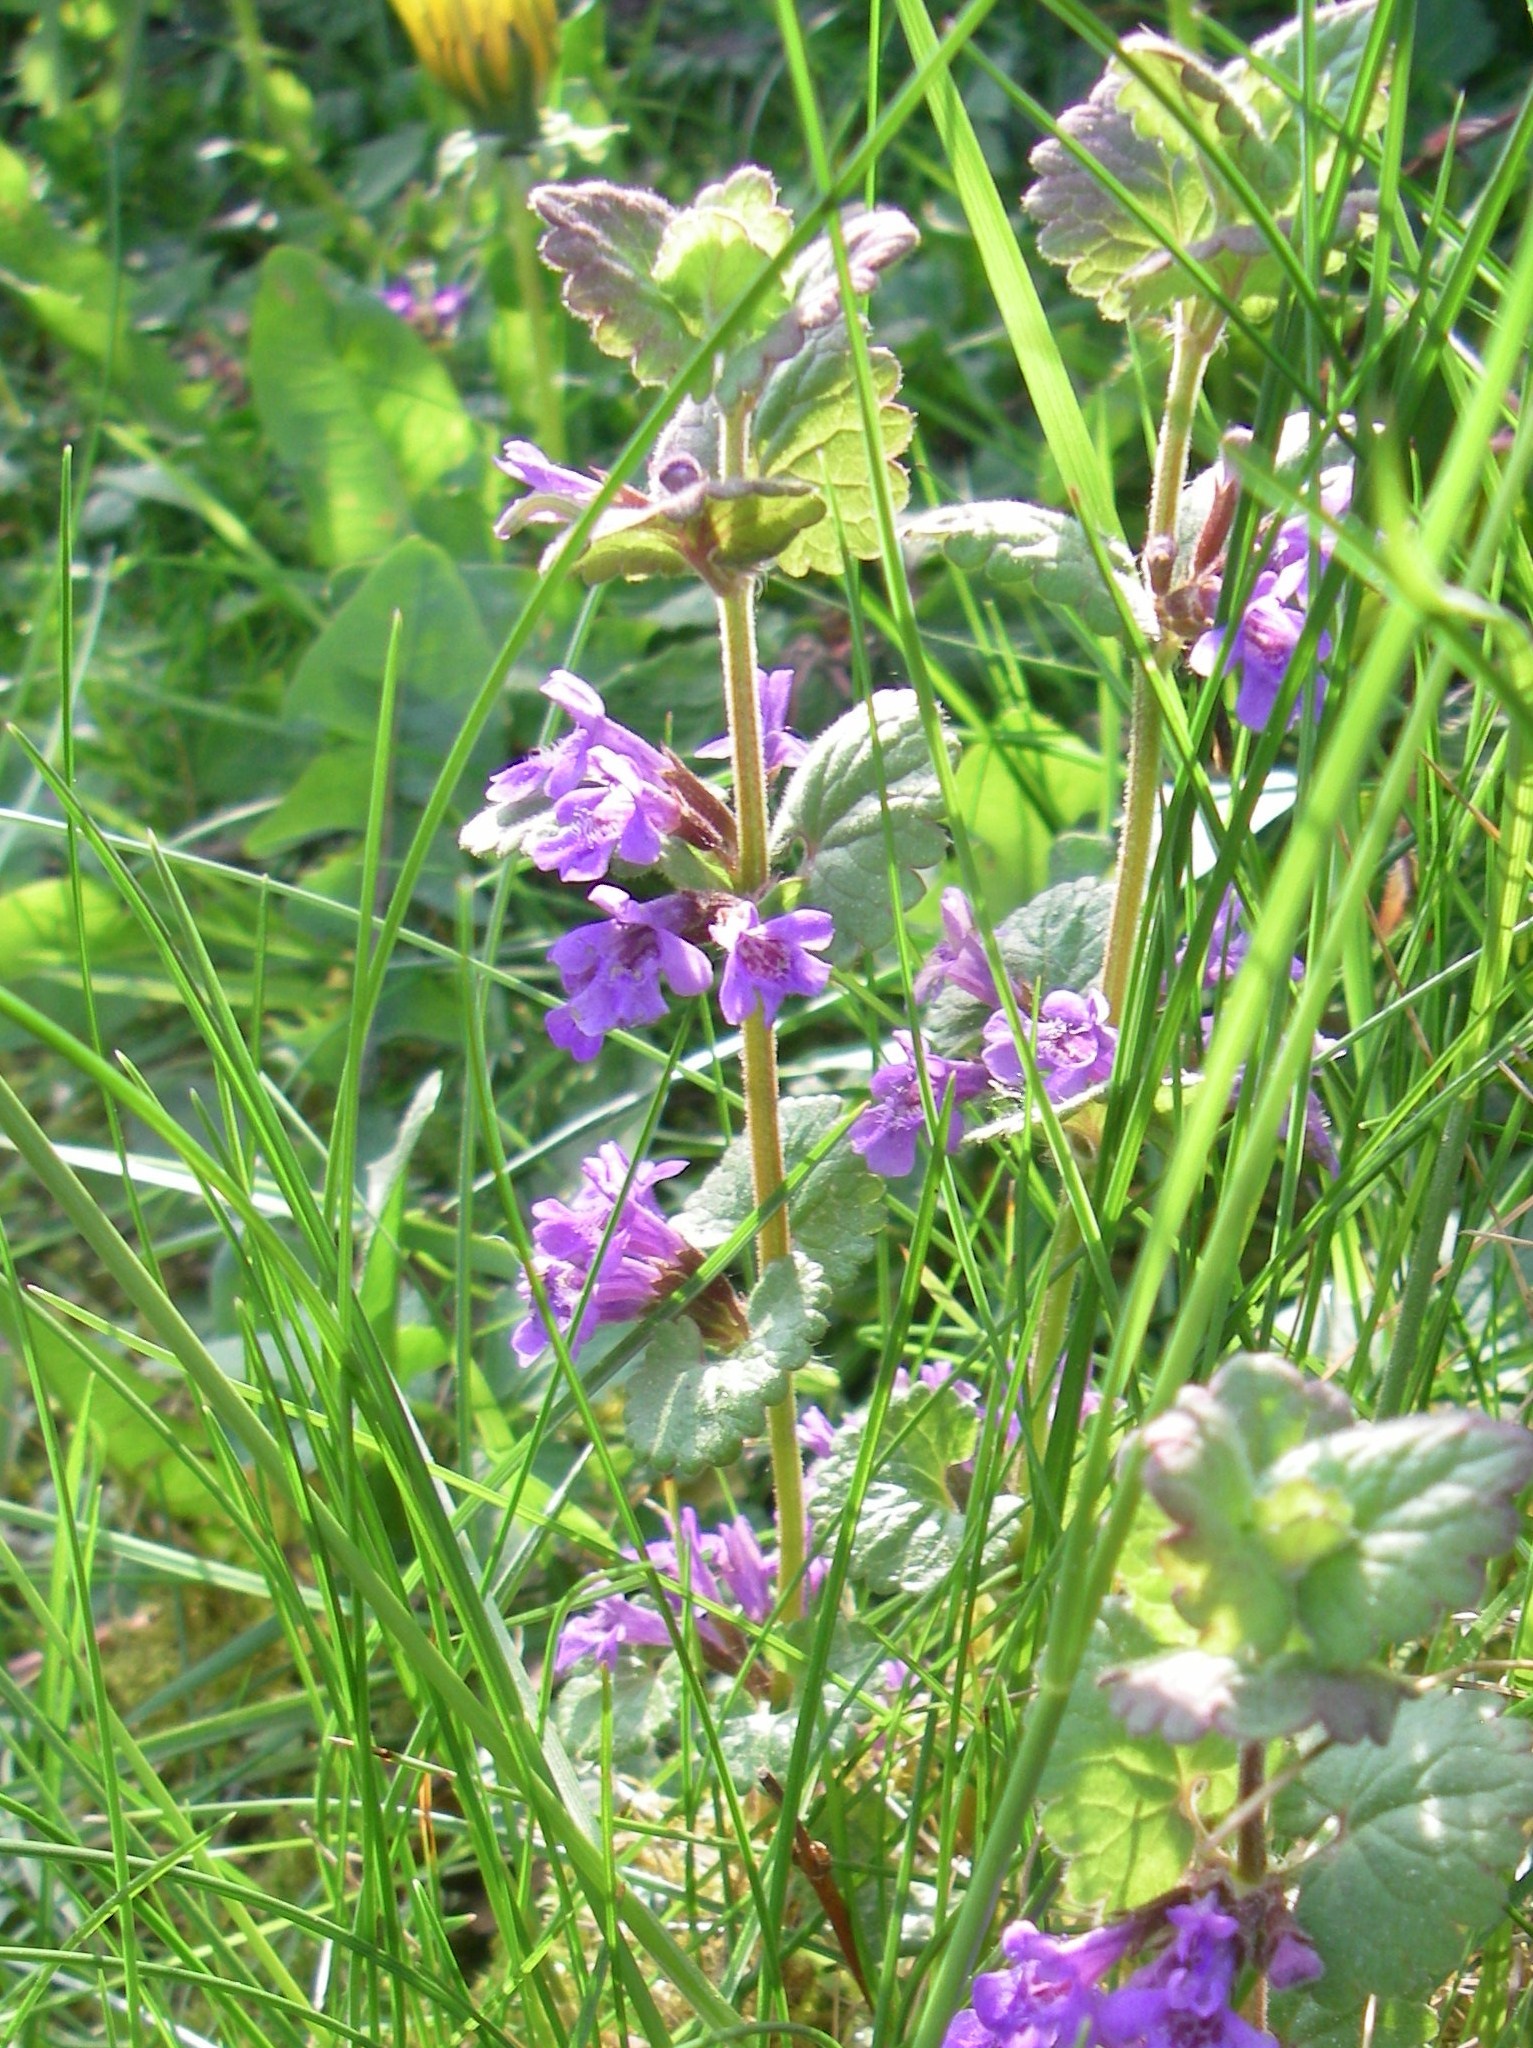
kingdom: Plantae
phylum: Tracheophyta
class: Magnoliopsida
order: Lamiales
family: Lamiaceae
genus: Glechoma
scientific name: Glechoma hederacea
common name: Ground ivy
